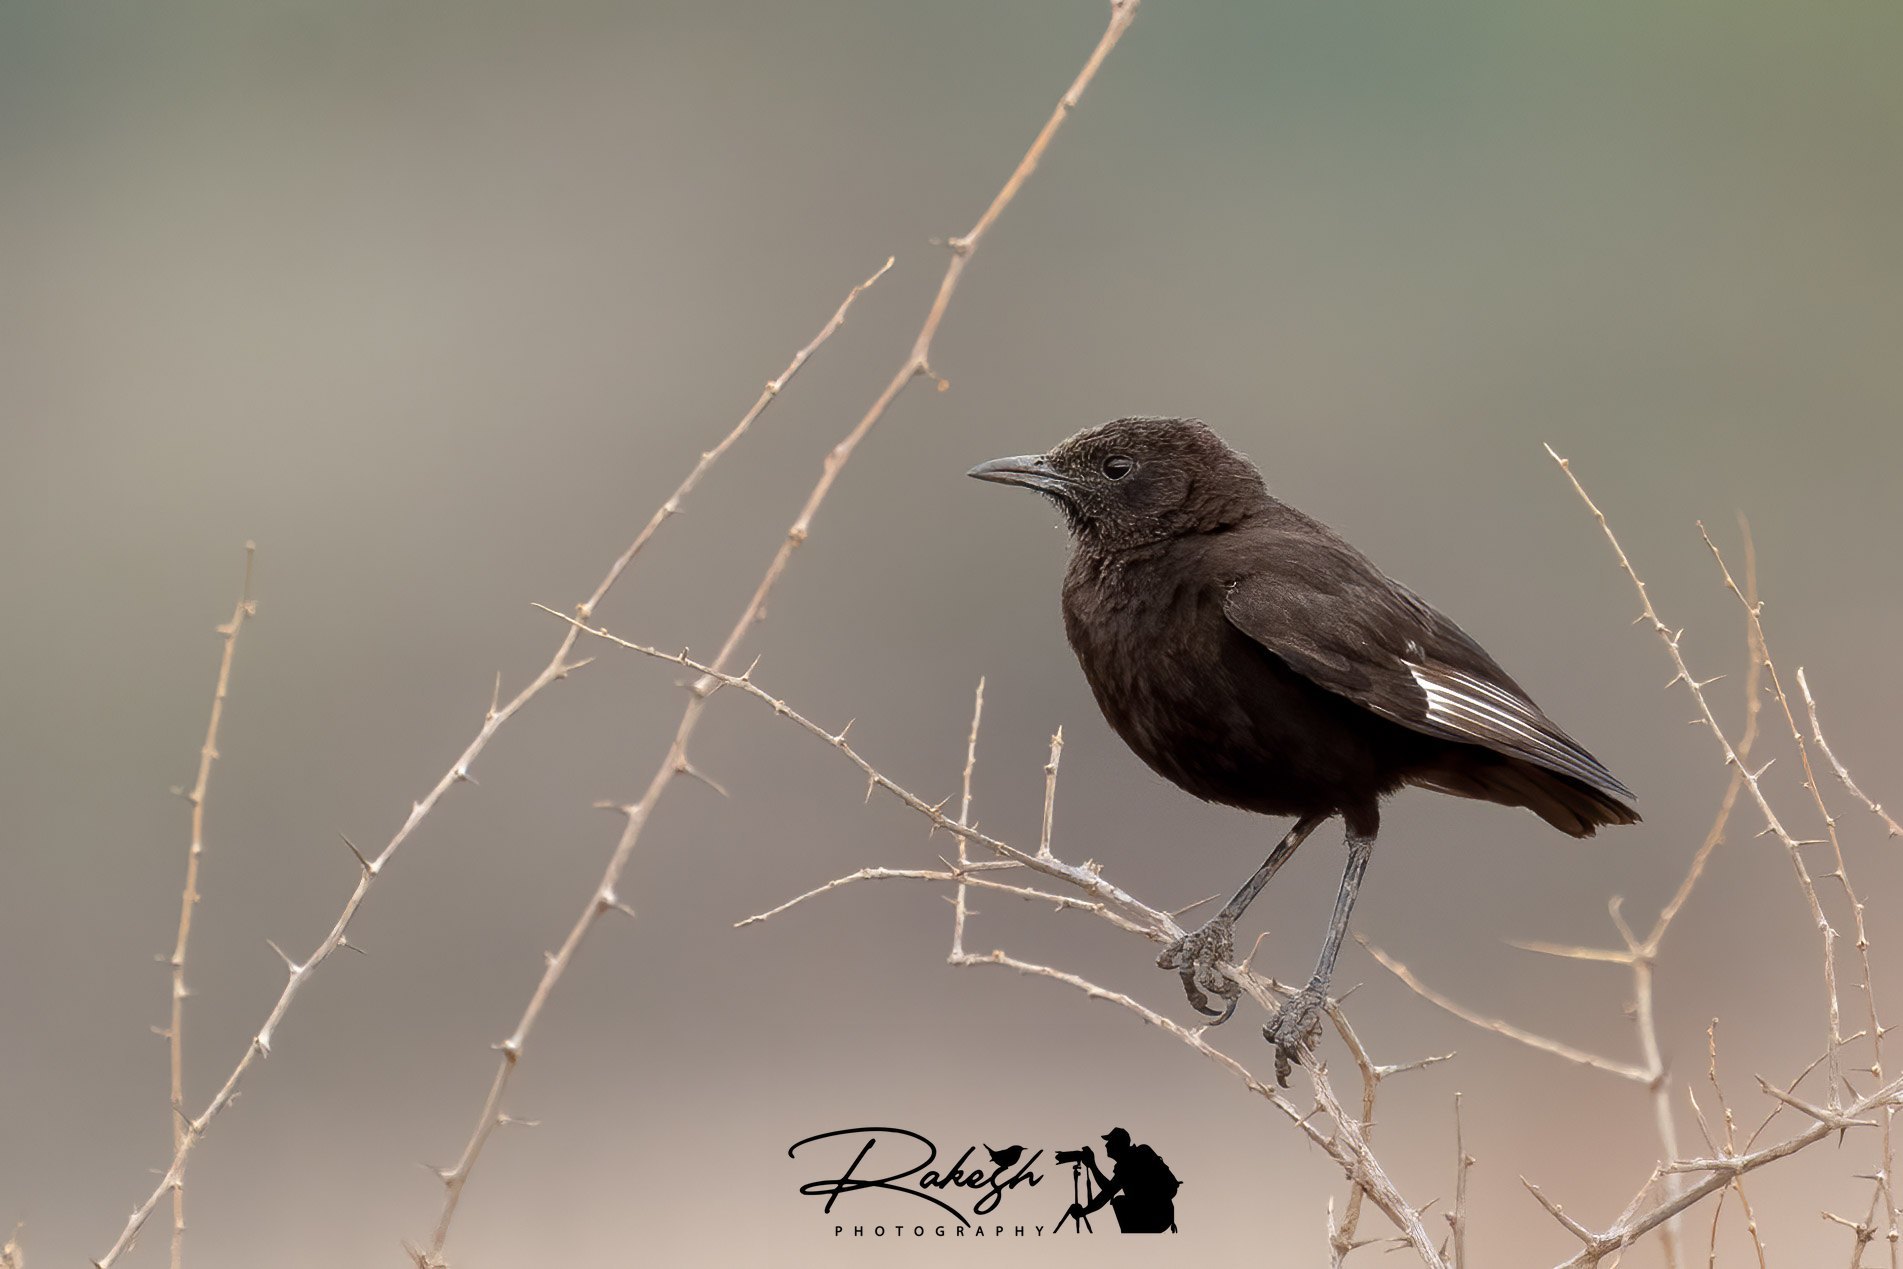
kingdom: Animalia
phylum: Chordata
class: Aves
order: Passeriformes
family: Muscicapidae
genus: Myrmecocichla
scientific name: Myrmecocichla aethiops
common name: Anteater chat
